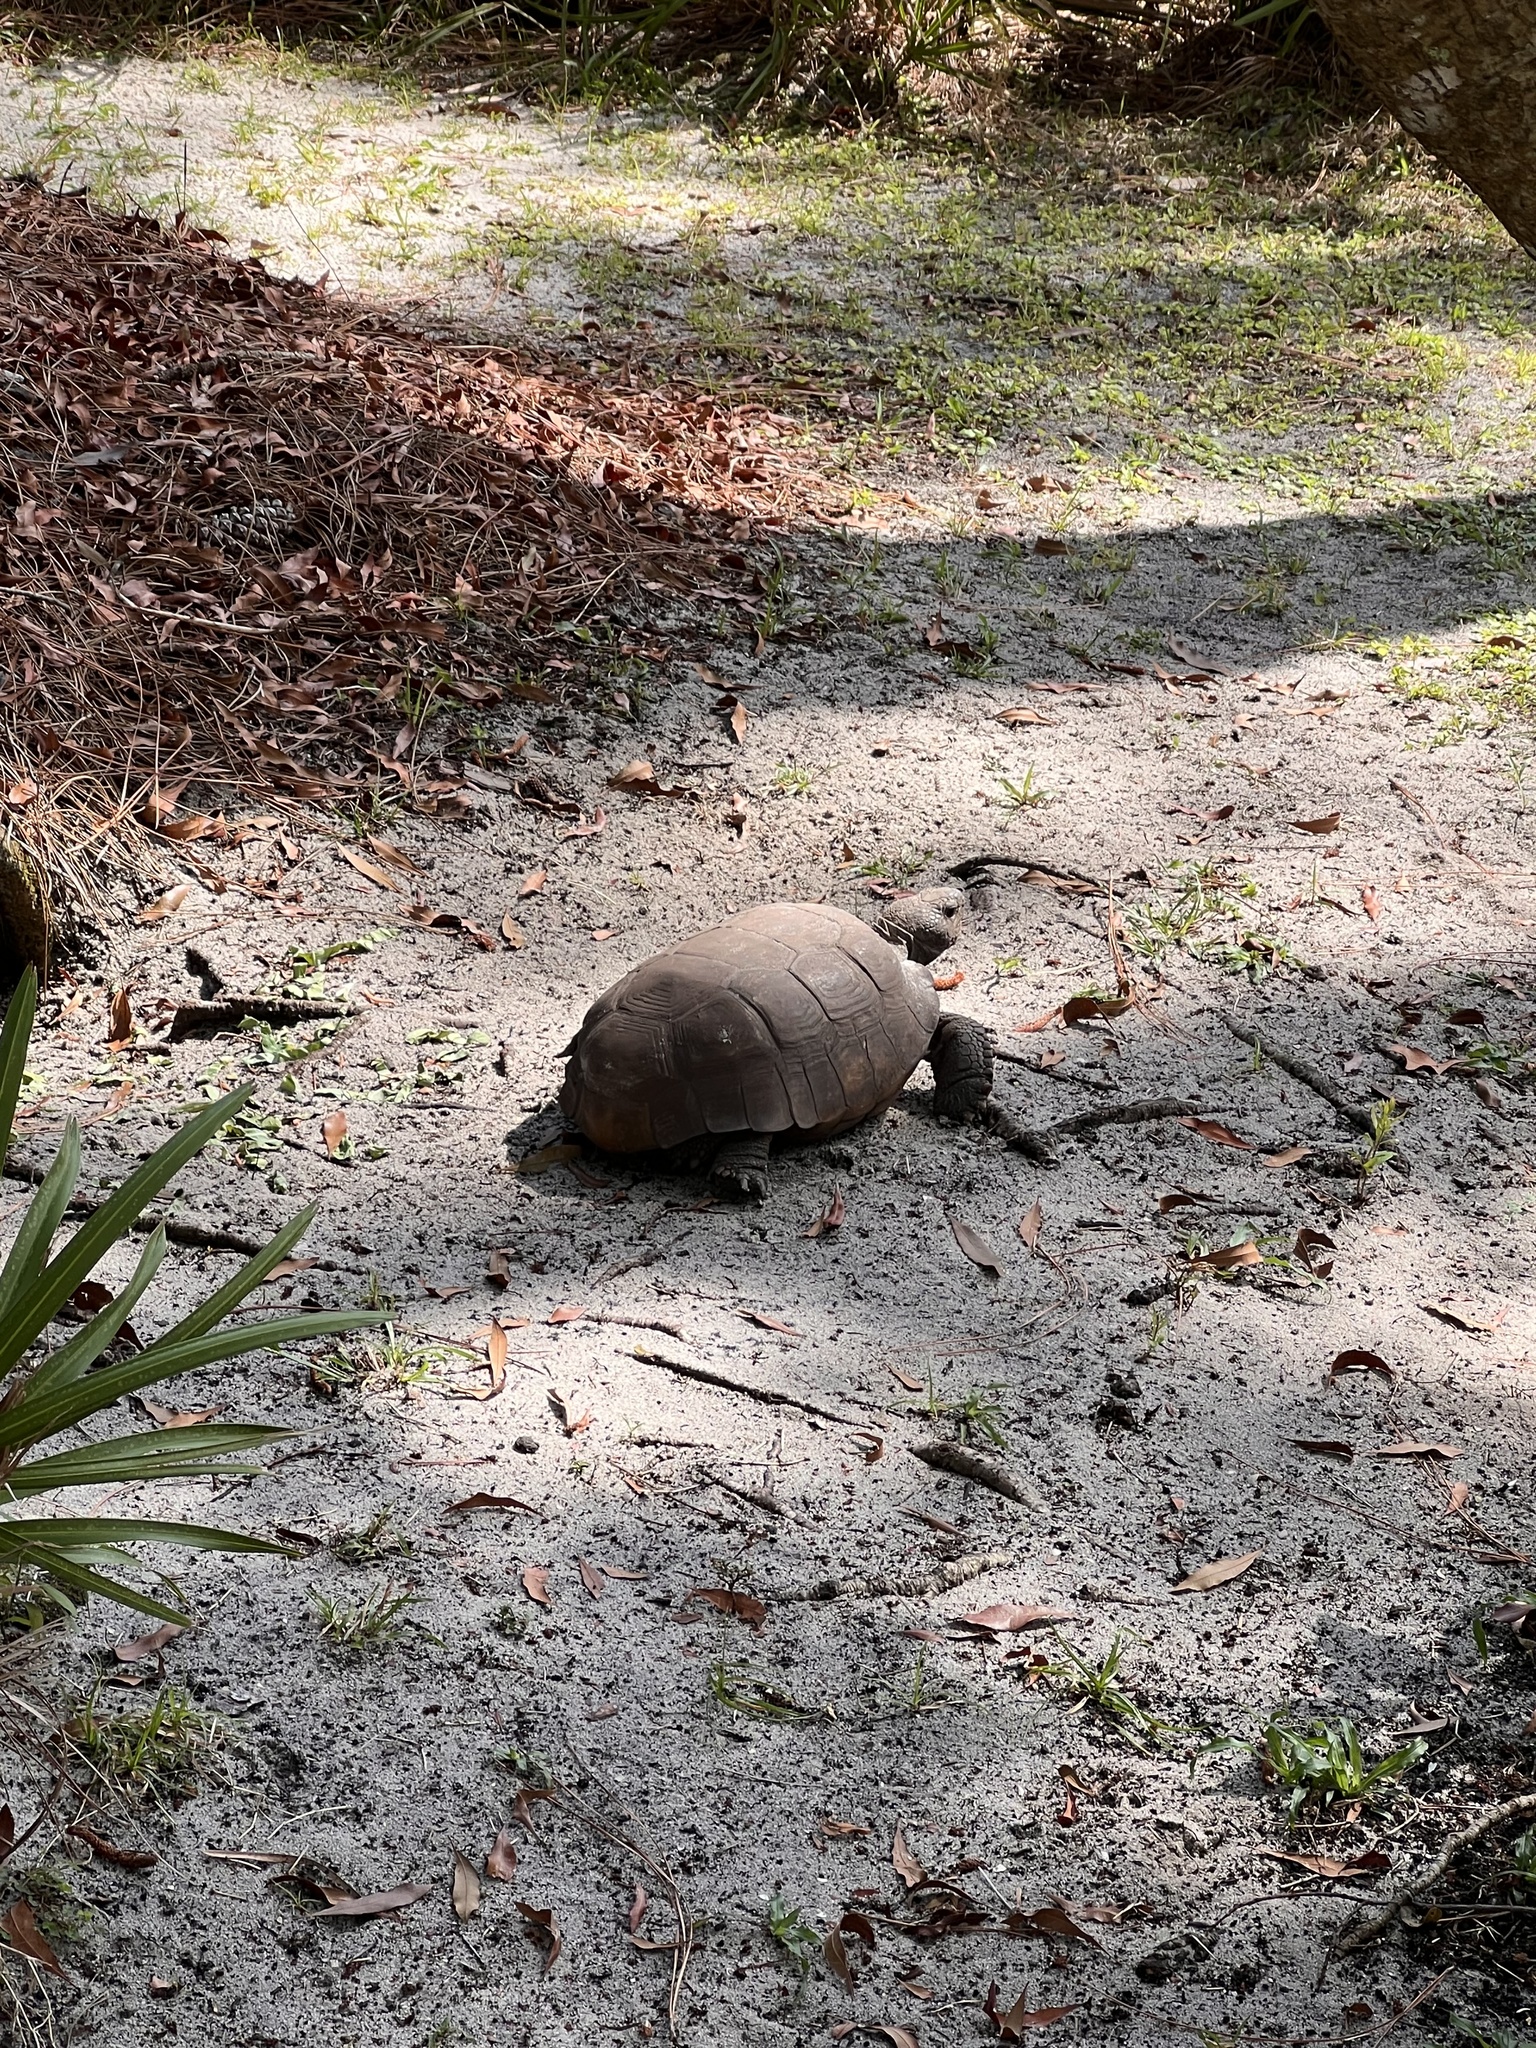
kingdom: Animalia
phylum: Chordata
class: Testudines
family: Testudinidae
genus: Gopherus
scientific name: Gopherus polyphemus
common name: Florida gopher tortoise
